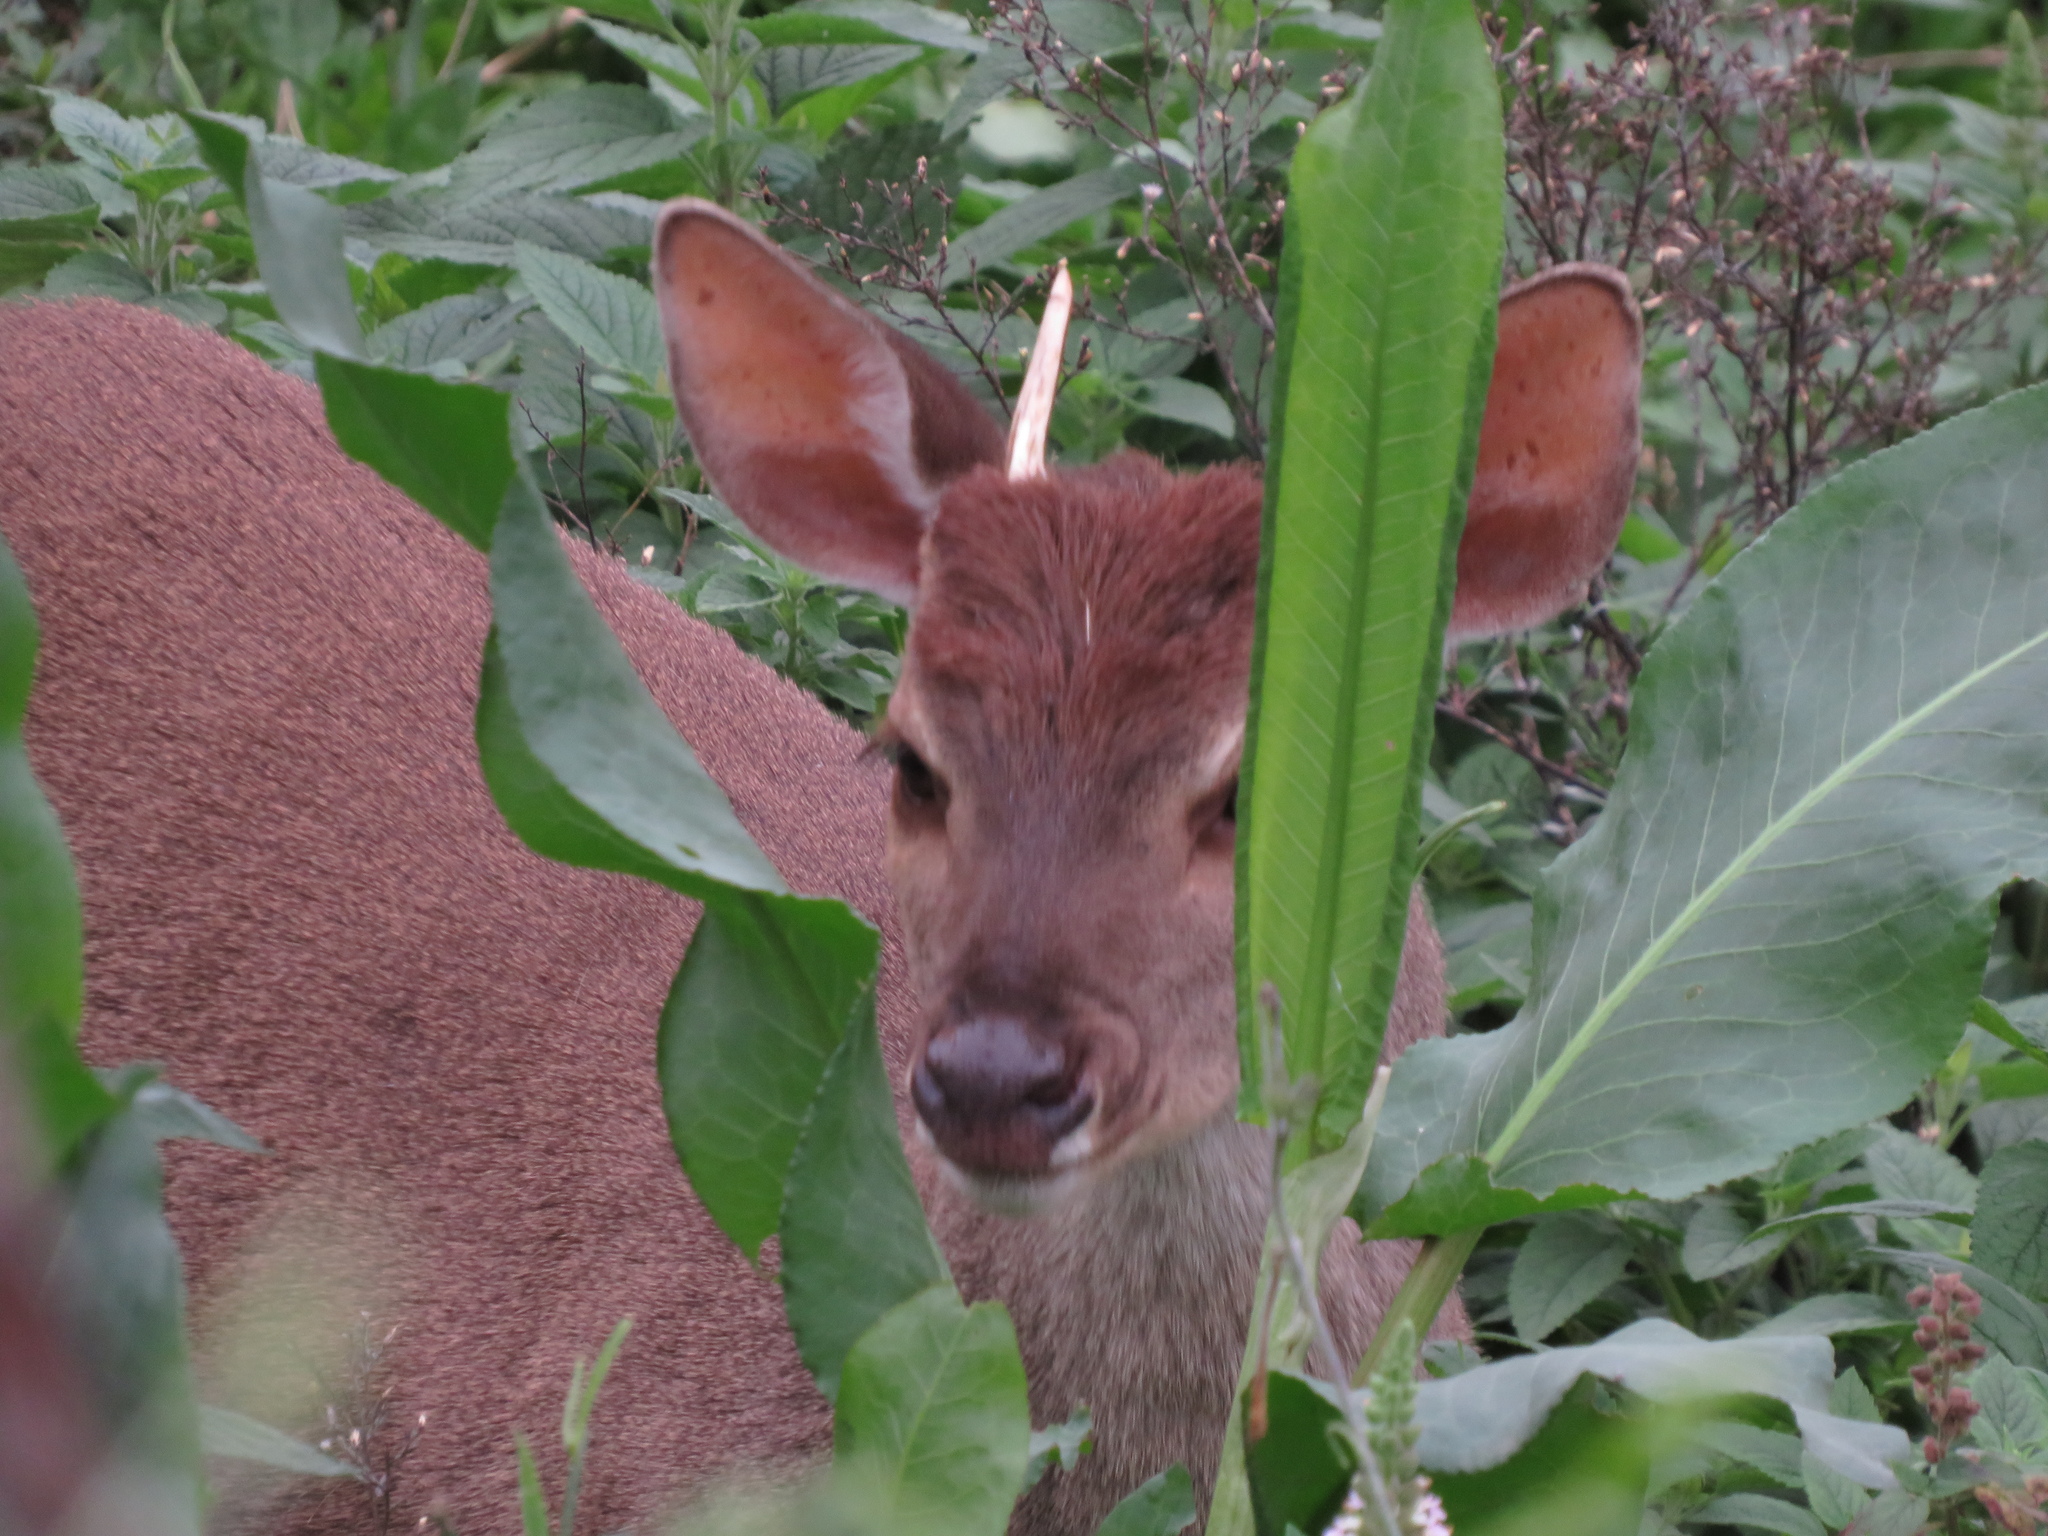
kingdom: Animalia
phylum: Chordata
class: Mammalia
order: Artiodactyla
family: Cervidae
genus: Mazama
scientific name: Mazama gouazoubira
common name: Gray brocket
